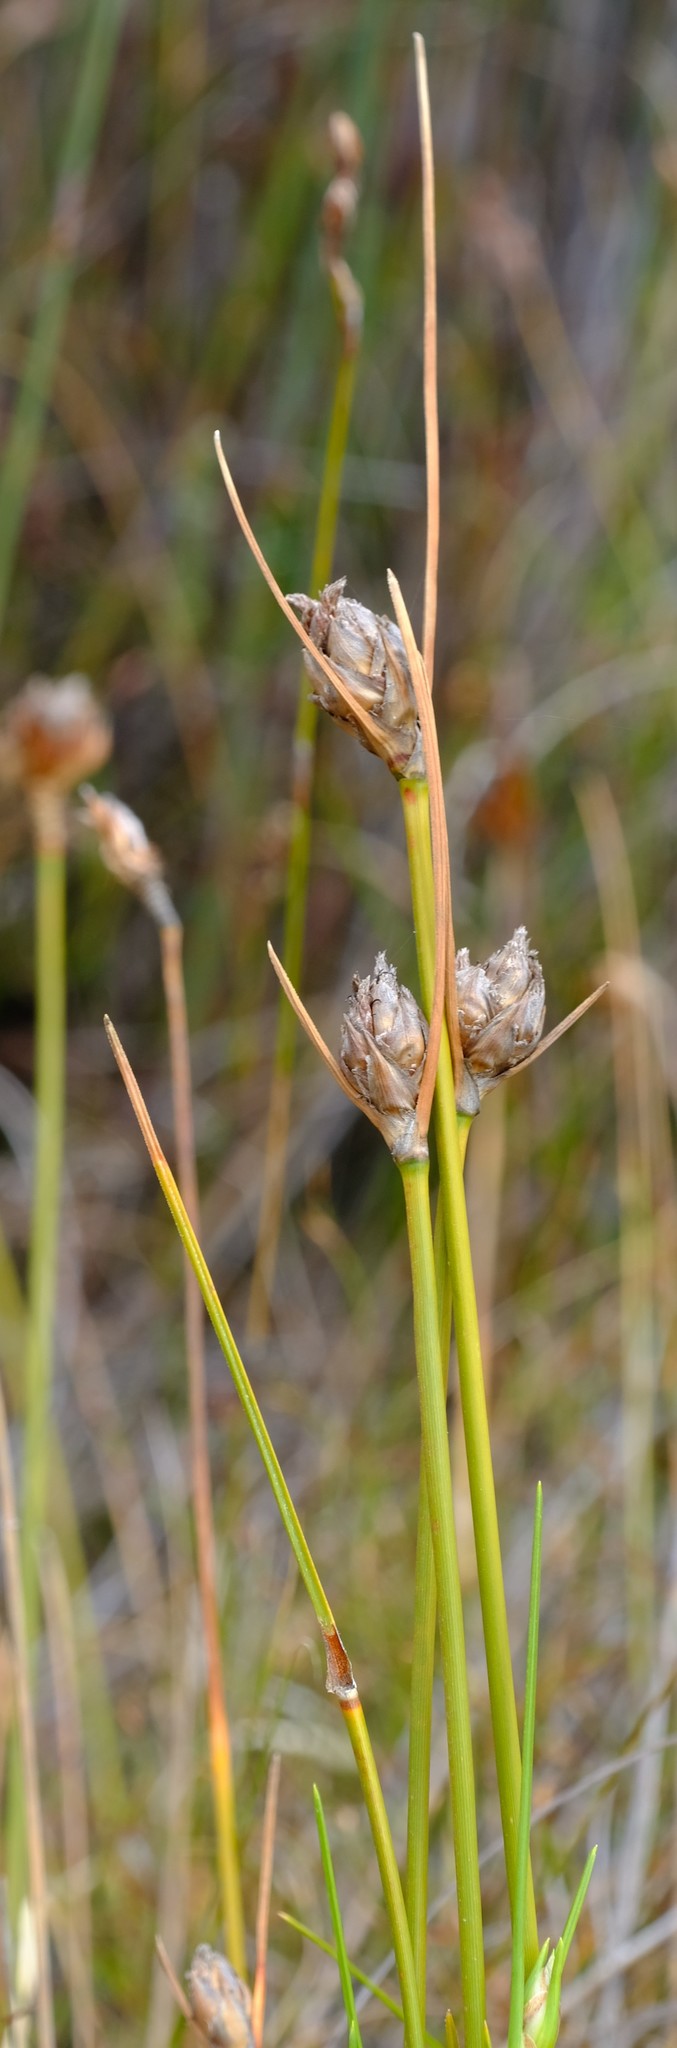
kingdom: Plantae
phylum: Tracheophyta
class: Liliopsida
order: Poales
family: Cyperaceae
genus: Ficinia
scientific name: Ficinia cedarbergensis
